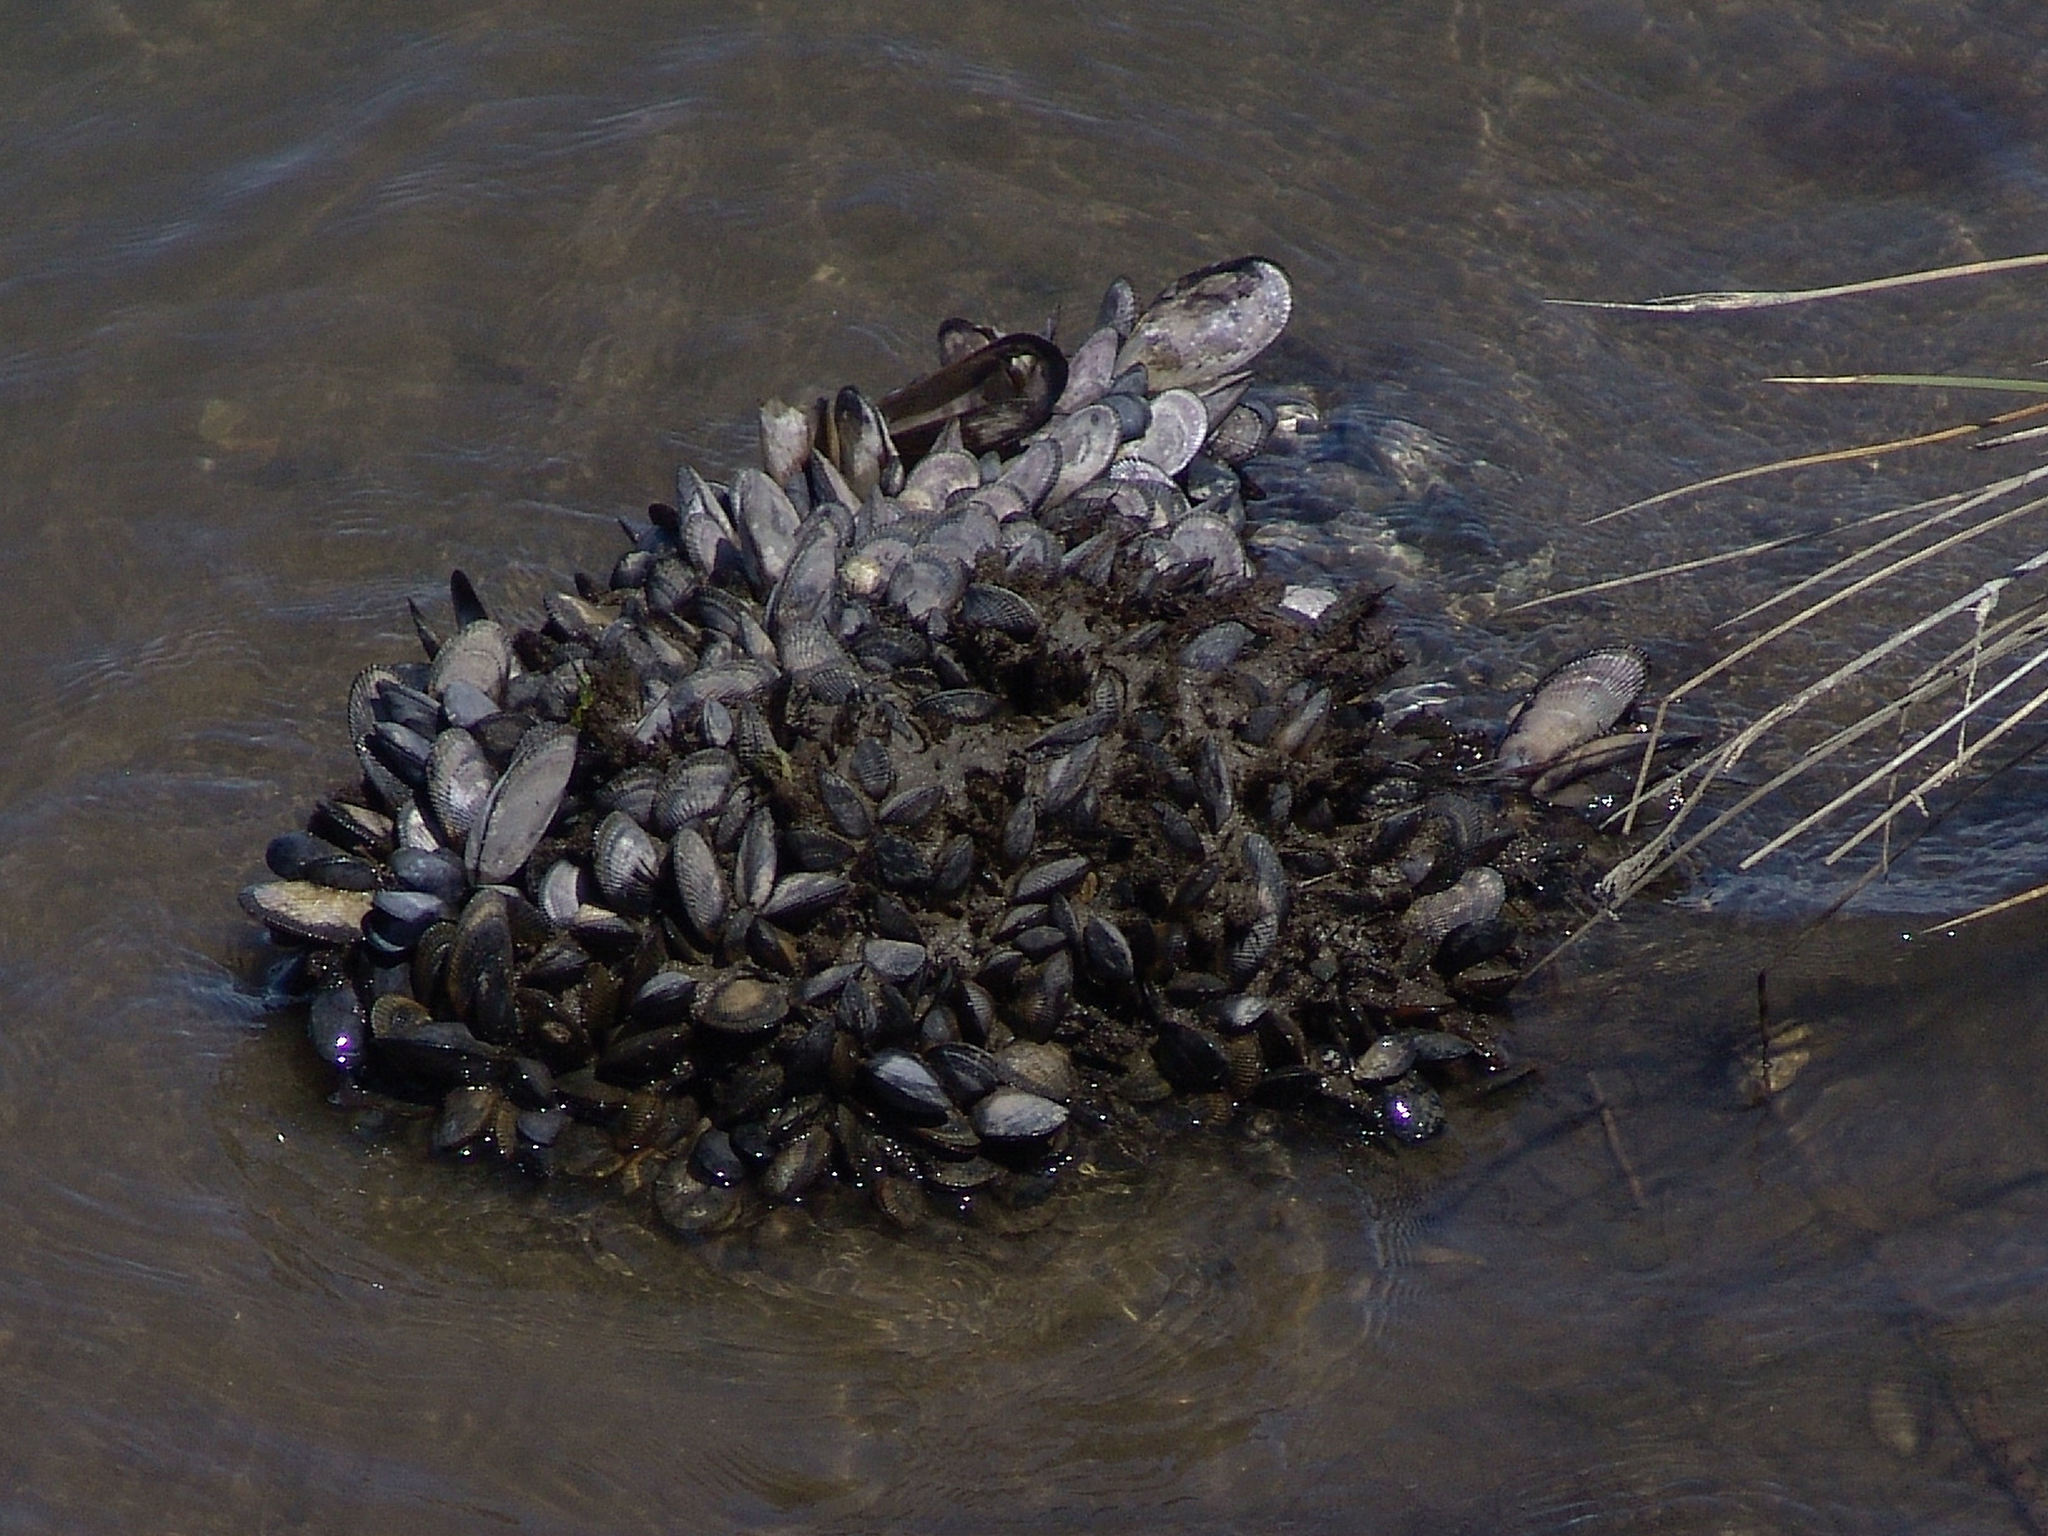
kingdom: Animalia
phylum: Mollusca
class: Bivalvia
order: Mytilida
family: Mytilidae
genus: Geukensia
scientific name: Geukensia demissa
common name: Ribbed mussel
